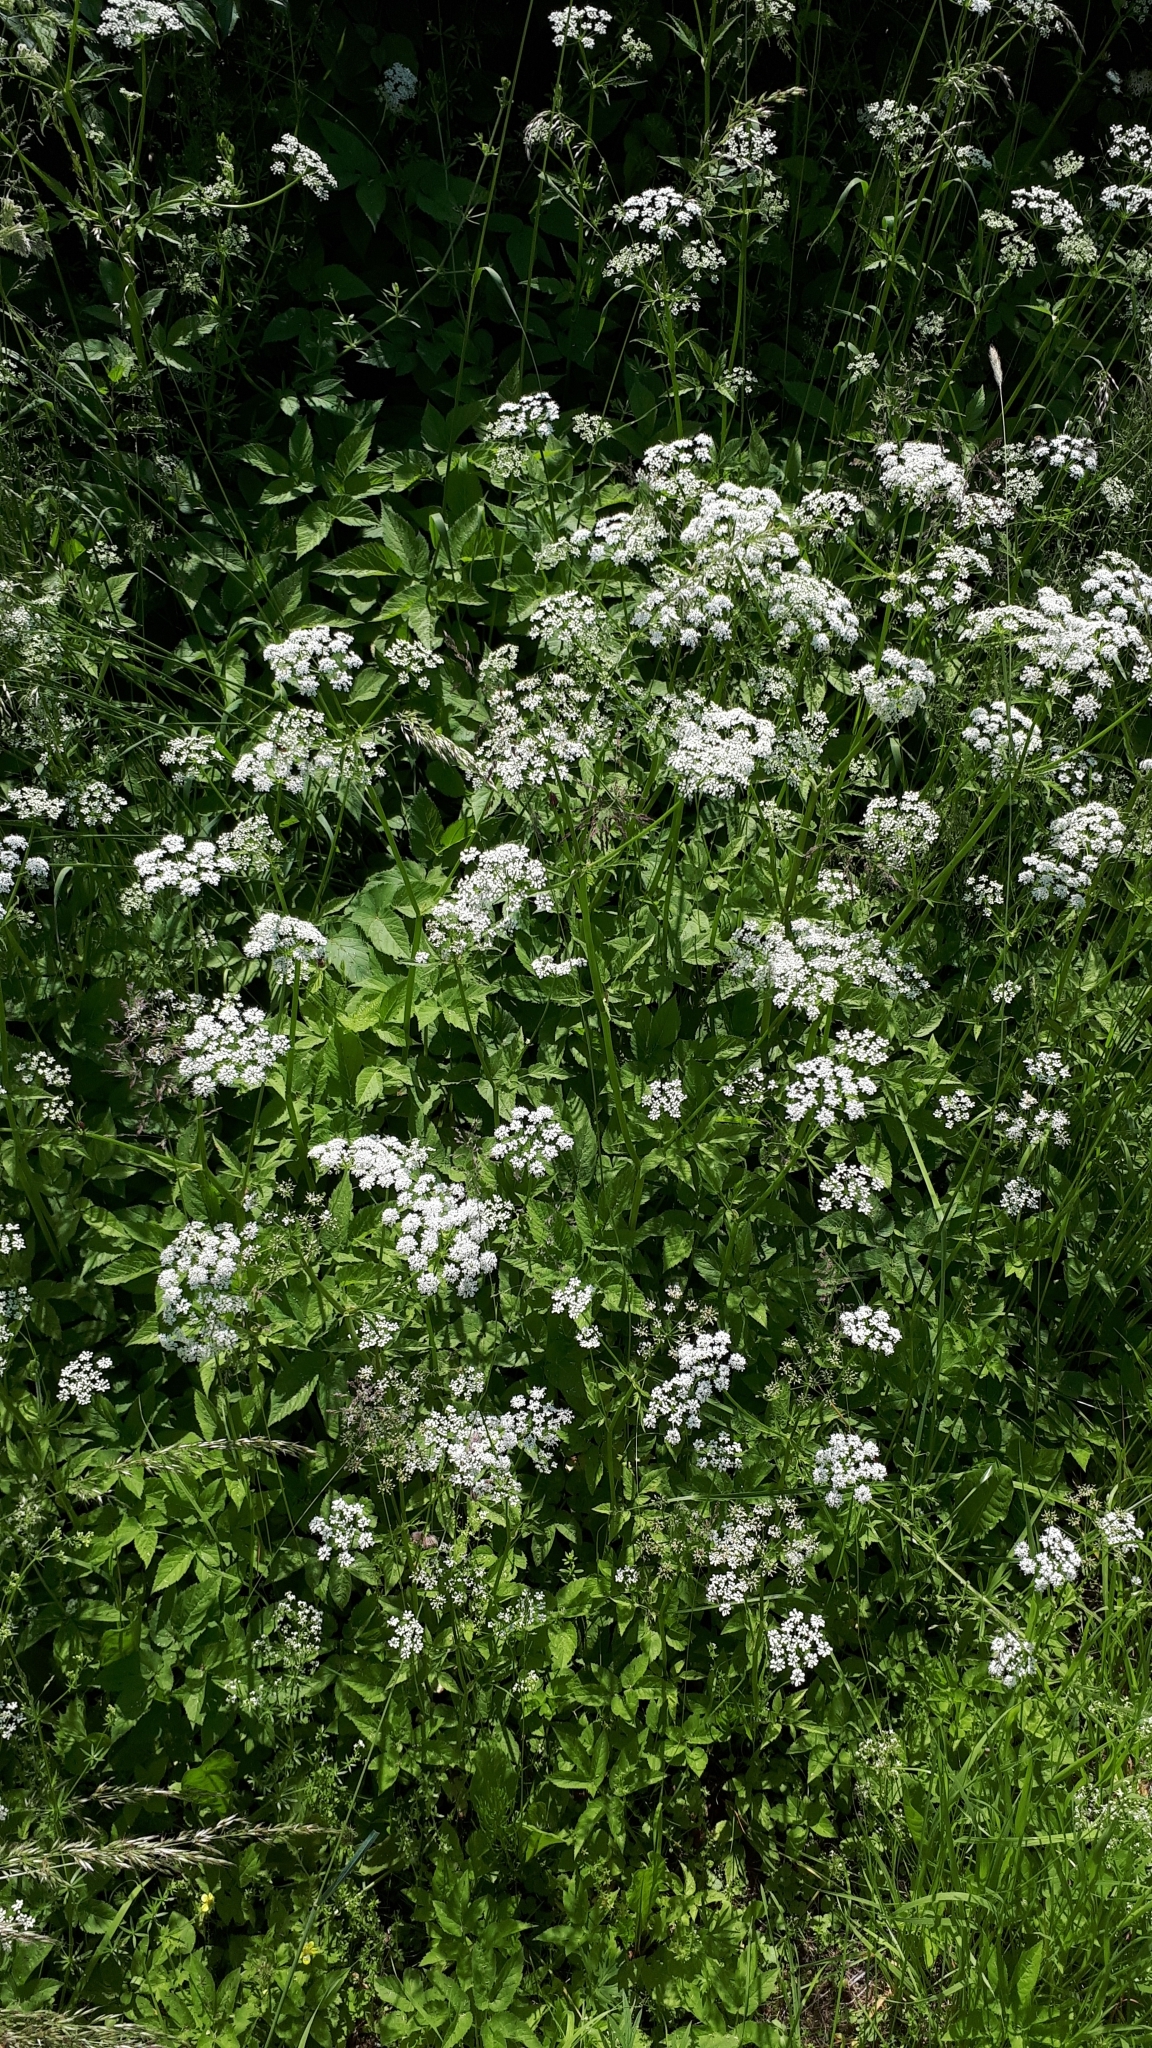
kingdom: Plantae
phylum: Tracheophyta
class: Magnoliopsida
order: Apiales
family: Apiaceae
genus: Aegopodium
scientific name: Aegopodium podagraria
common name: Ground-elder
